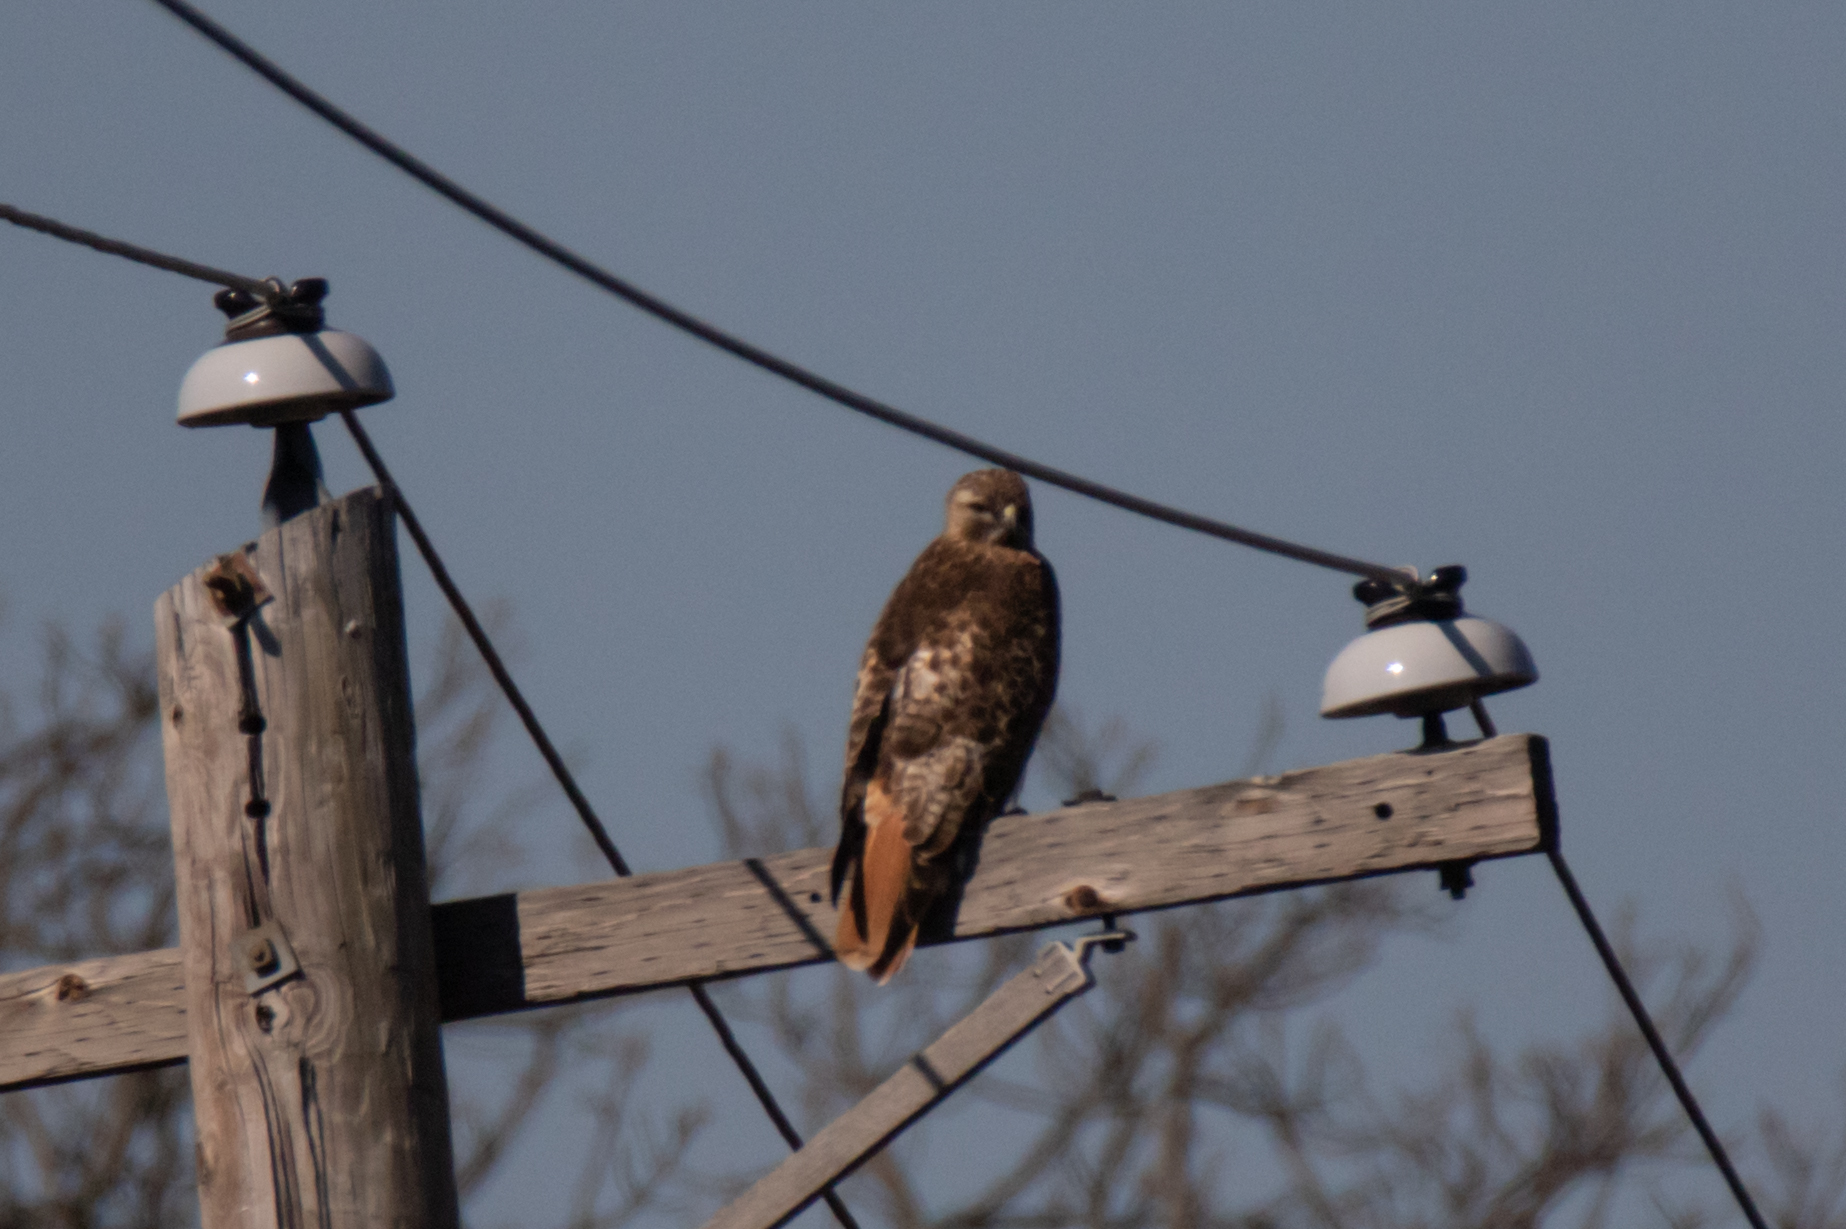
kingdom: Animalia
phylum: Chordata
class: Aves
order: Accipitriformes
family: Accipitridae
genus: Buteo
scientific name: Buteo jamaicensis
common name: Red-tailed hawk
